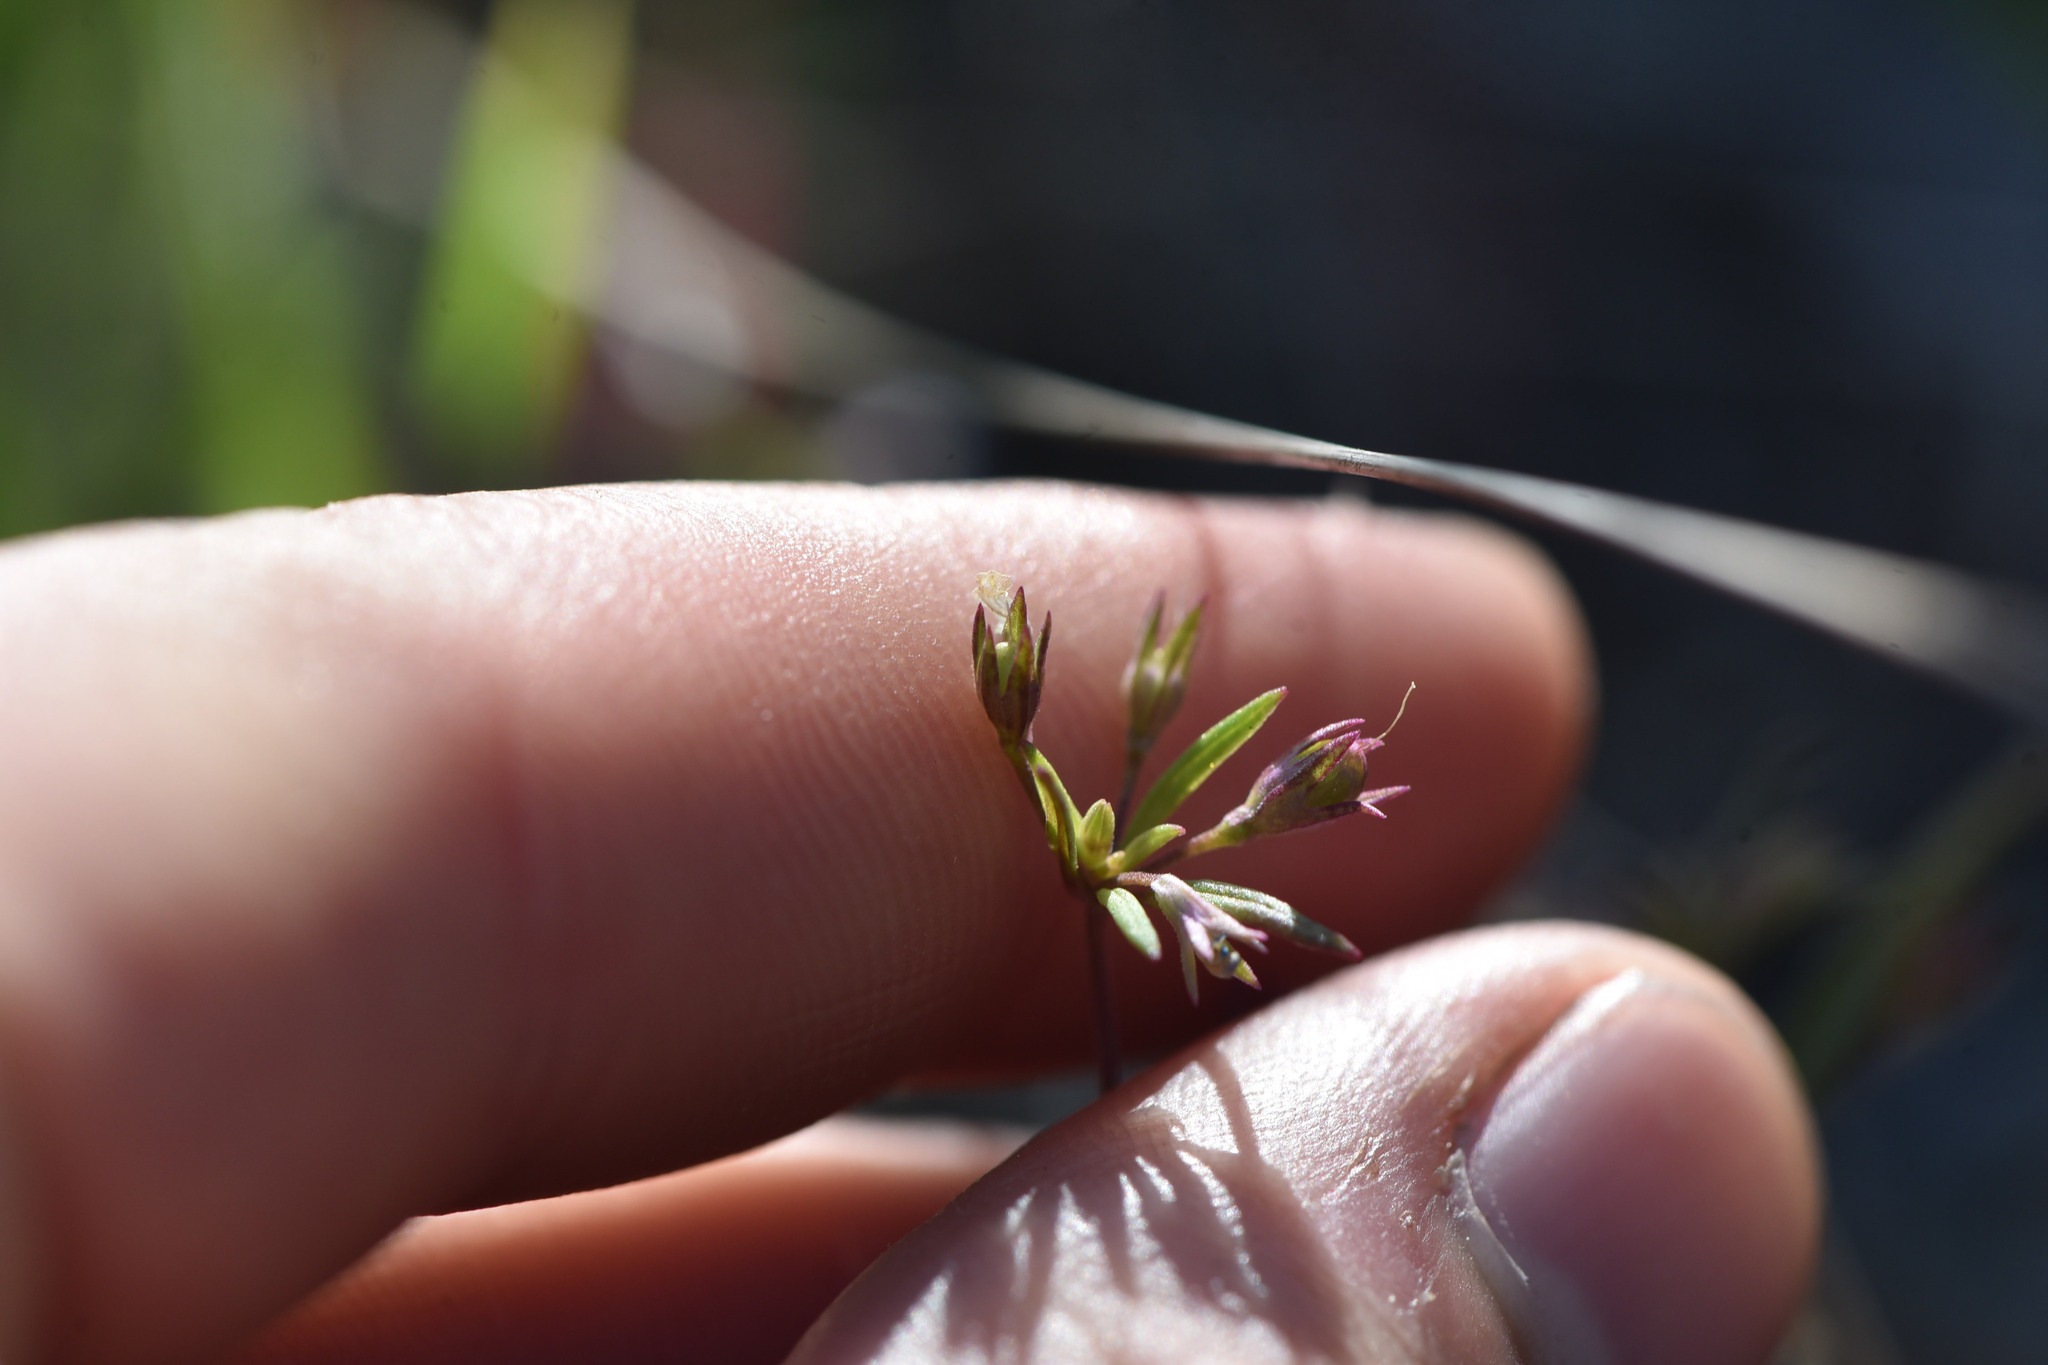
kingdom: Plantae
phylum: Tracheophyta
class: Magnoliopsida
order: Lamiales
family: Plantaginaceae
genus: Collinsia
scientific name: Collinsia parviflora
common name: Blue-lips
